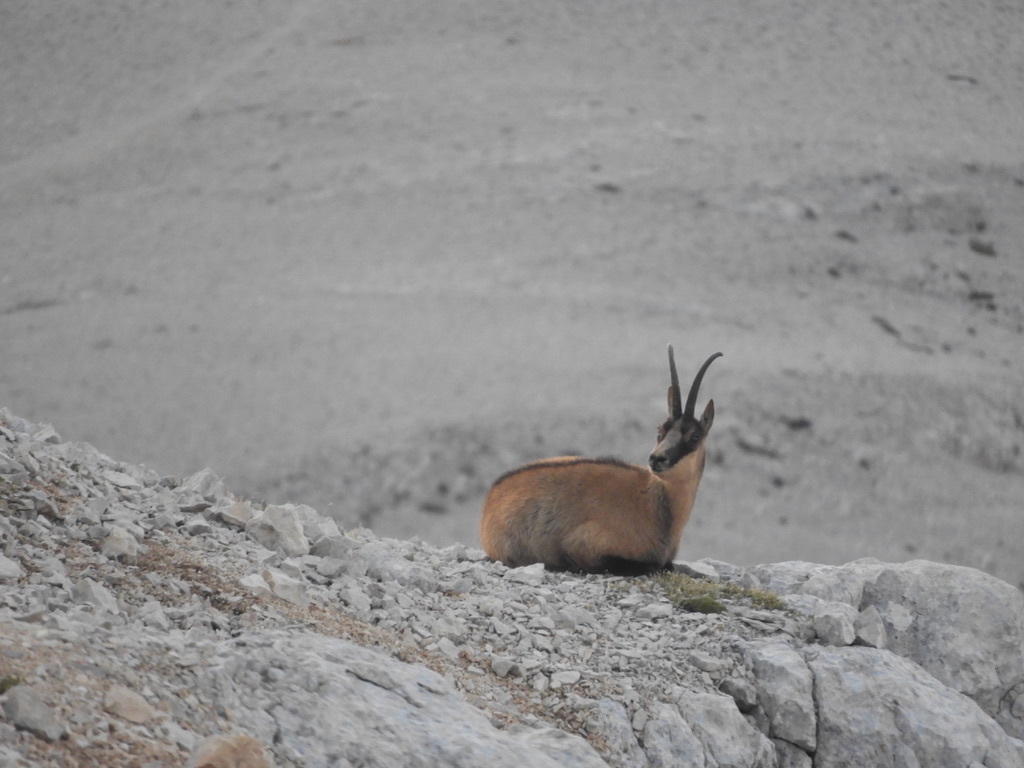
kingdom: Animalia
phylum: Chordata
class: Mammalia
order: Artiodactyla
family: Bovidae
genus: Rupicapra
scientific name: Rupicapra pyrenaica
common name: Pyrenean chamois
